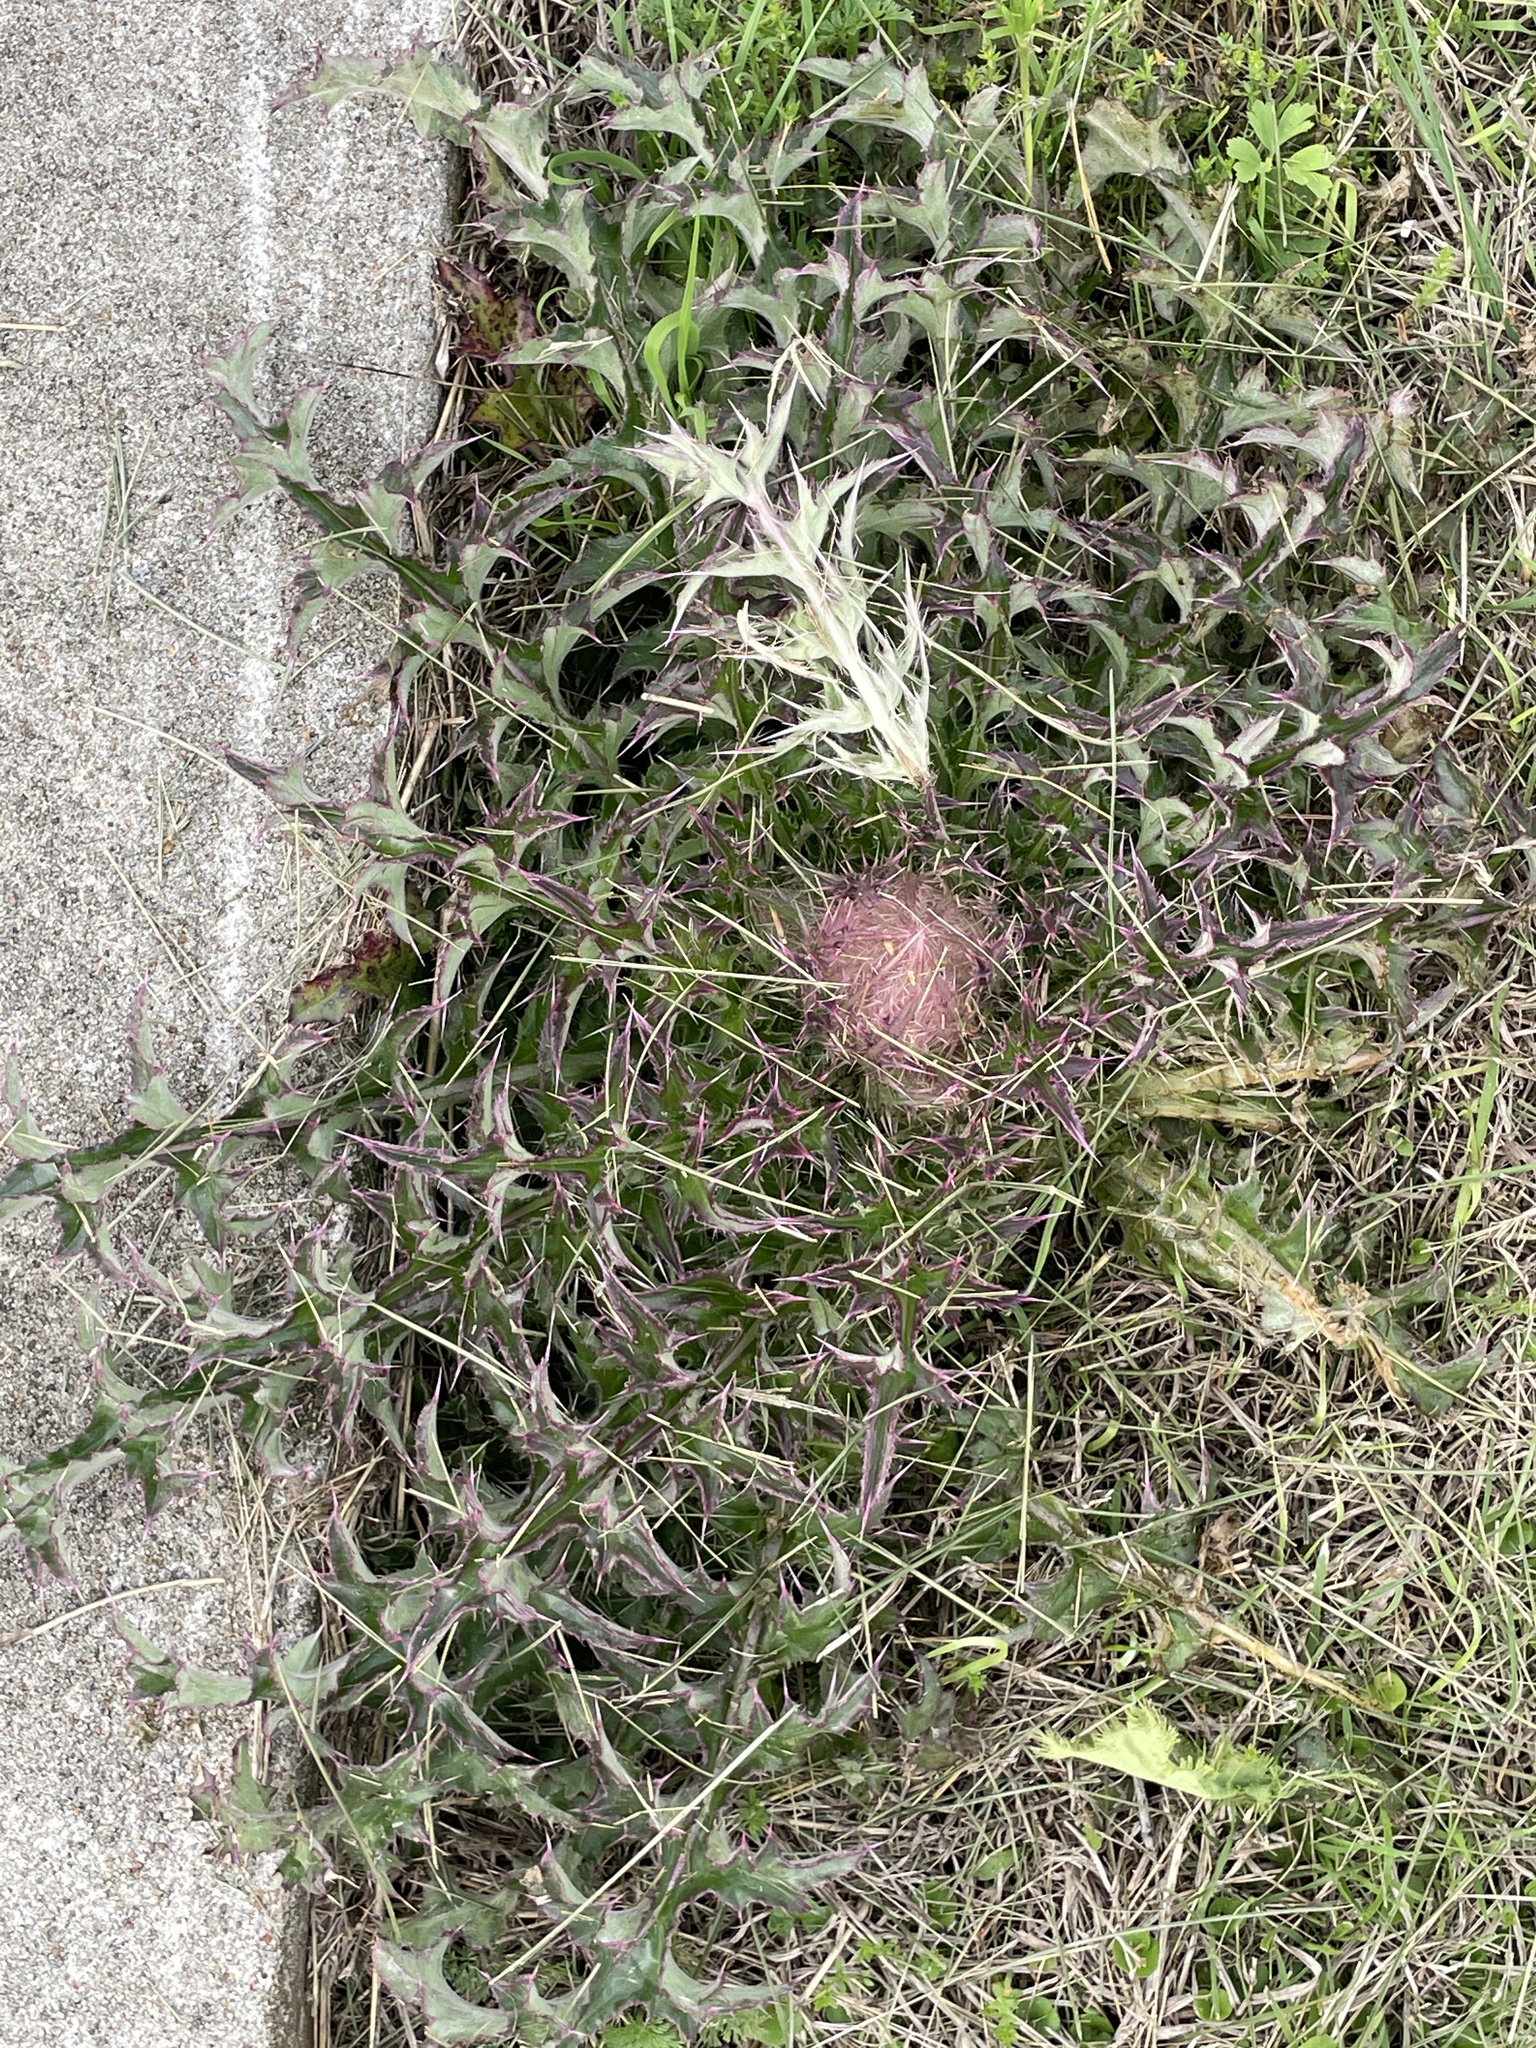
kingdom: Plantae
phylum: Tracheophyta
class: Magnoliopsida
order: Asterales
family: Asteraceae
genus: Cirsium
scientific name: Cirsium horridulum
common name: Bristly thistle
